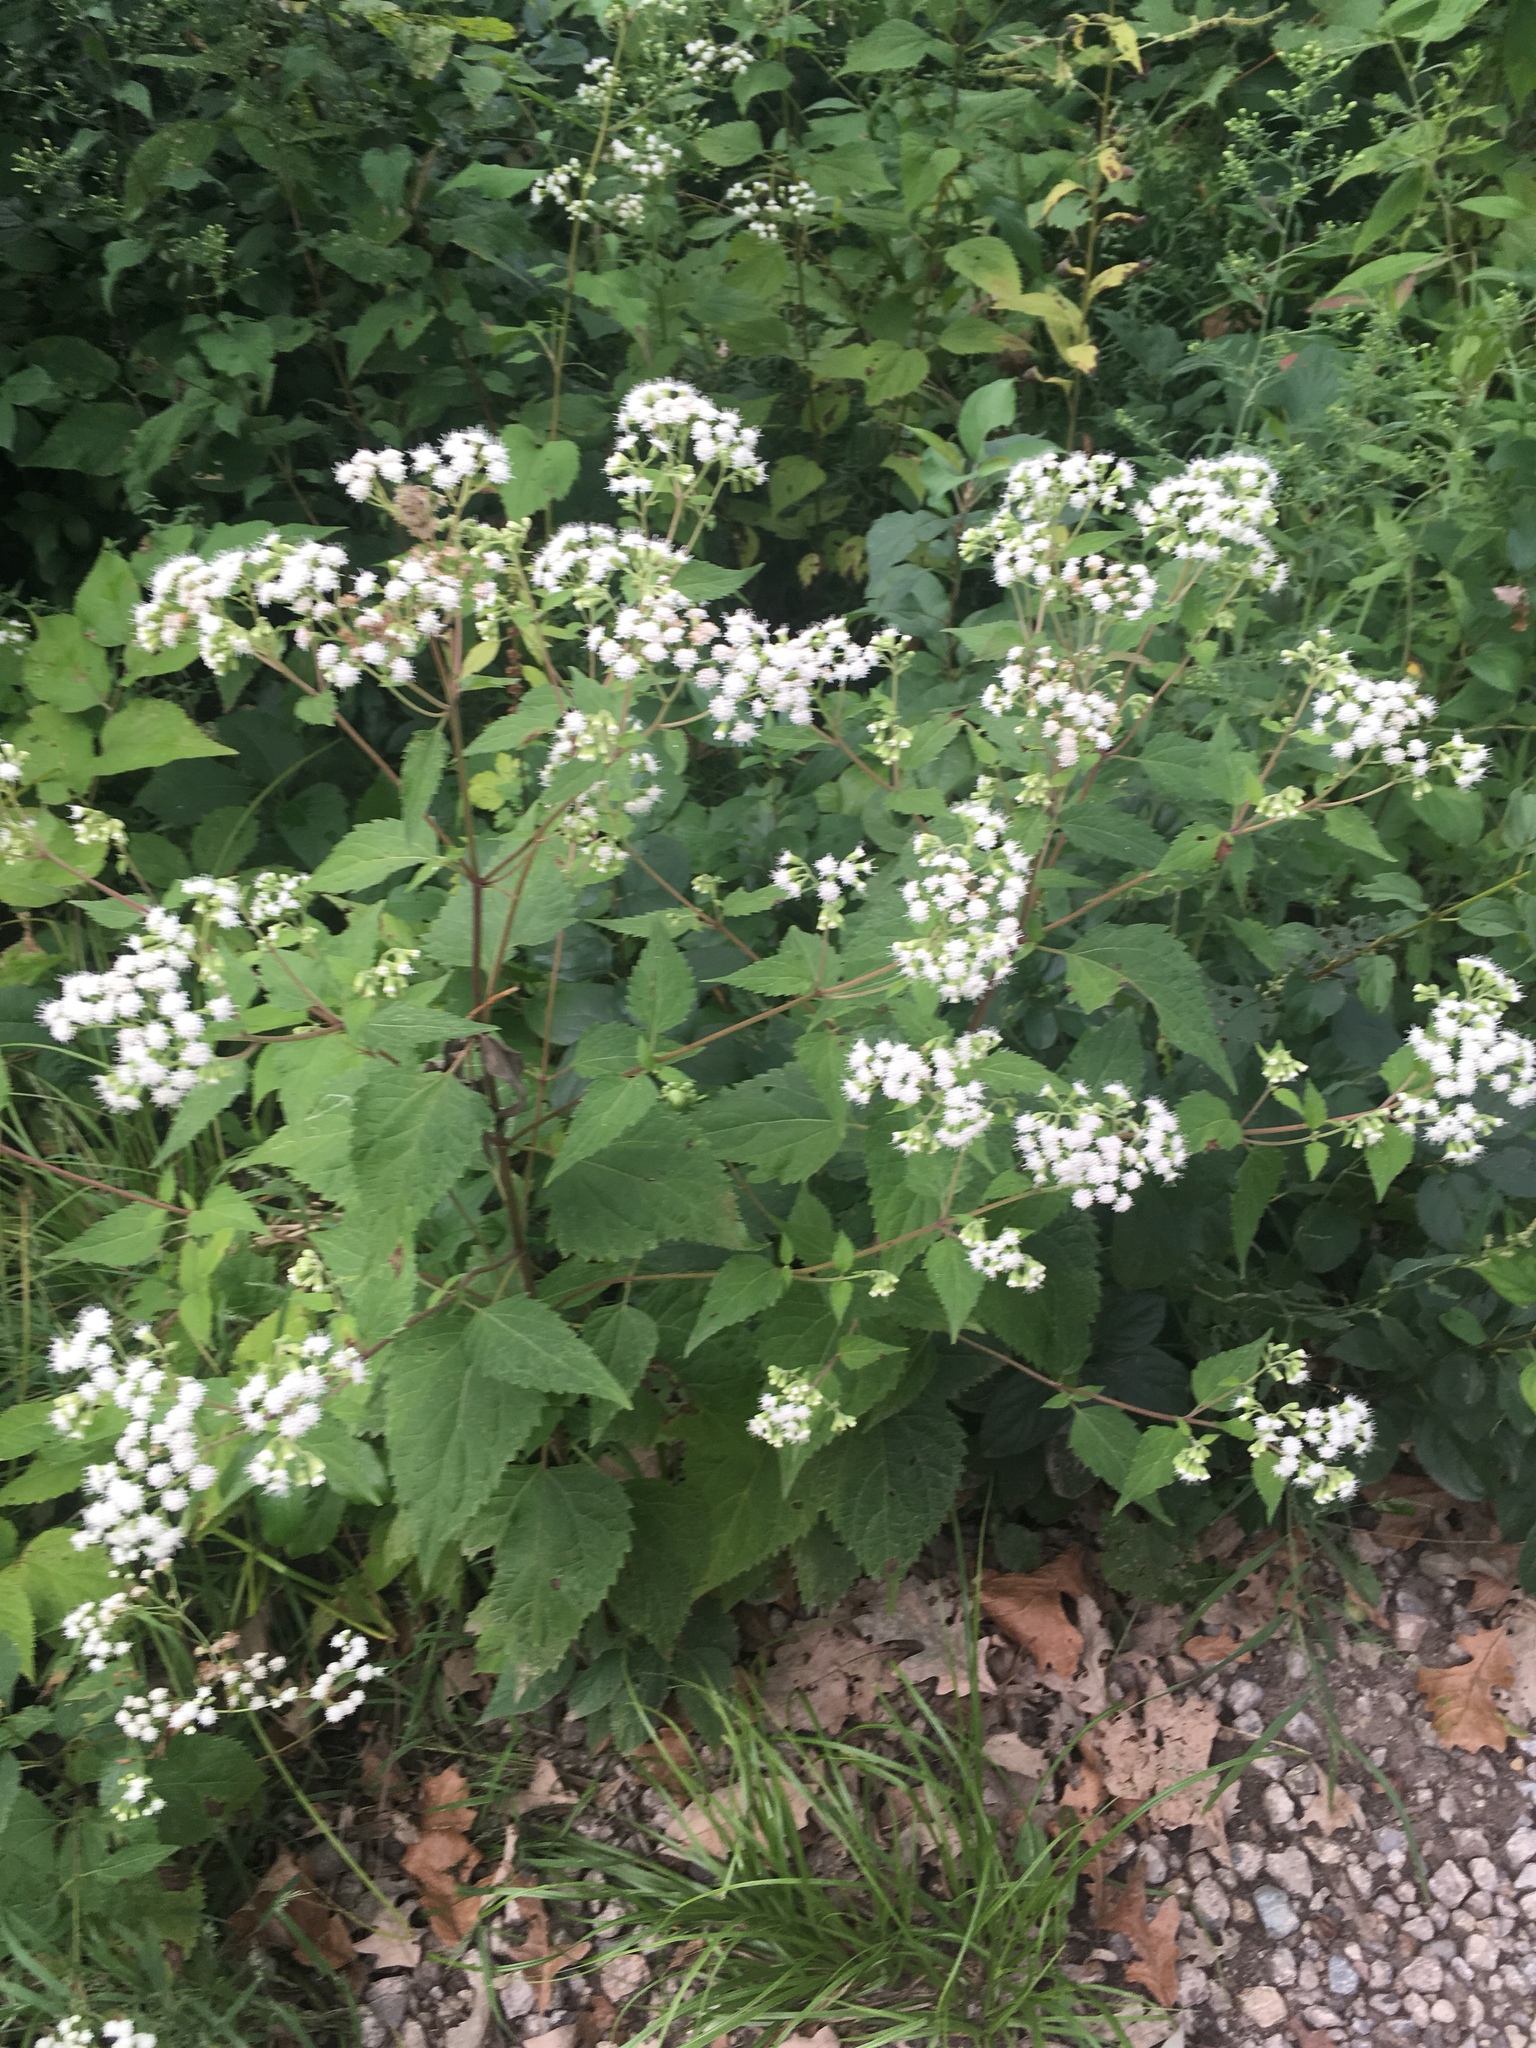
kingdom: Plantae
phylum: Tracheophyta
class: Magnoliopsida
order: Asterales
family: Asteraceae
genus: Ageratina
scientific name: Ageratina altissima
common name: White snakeroot
